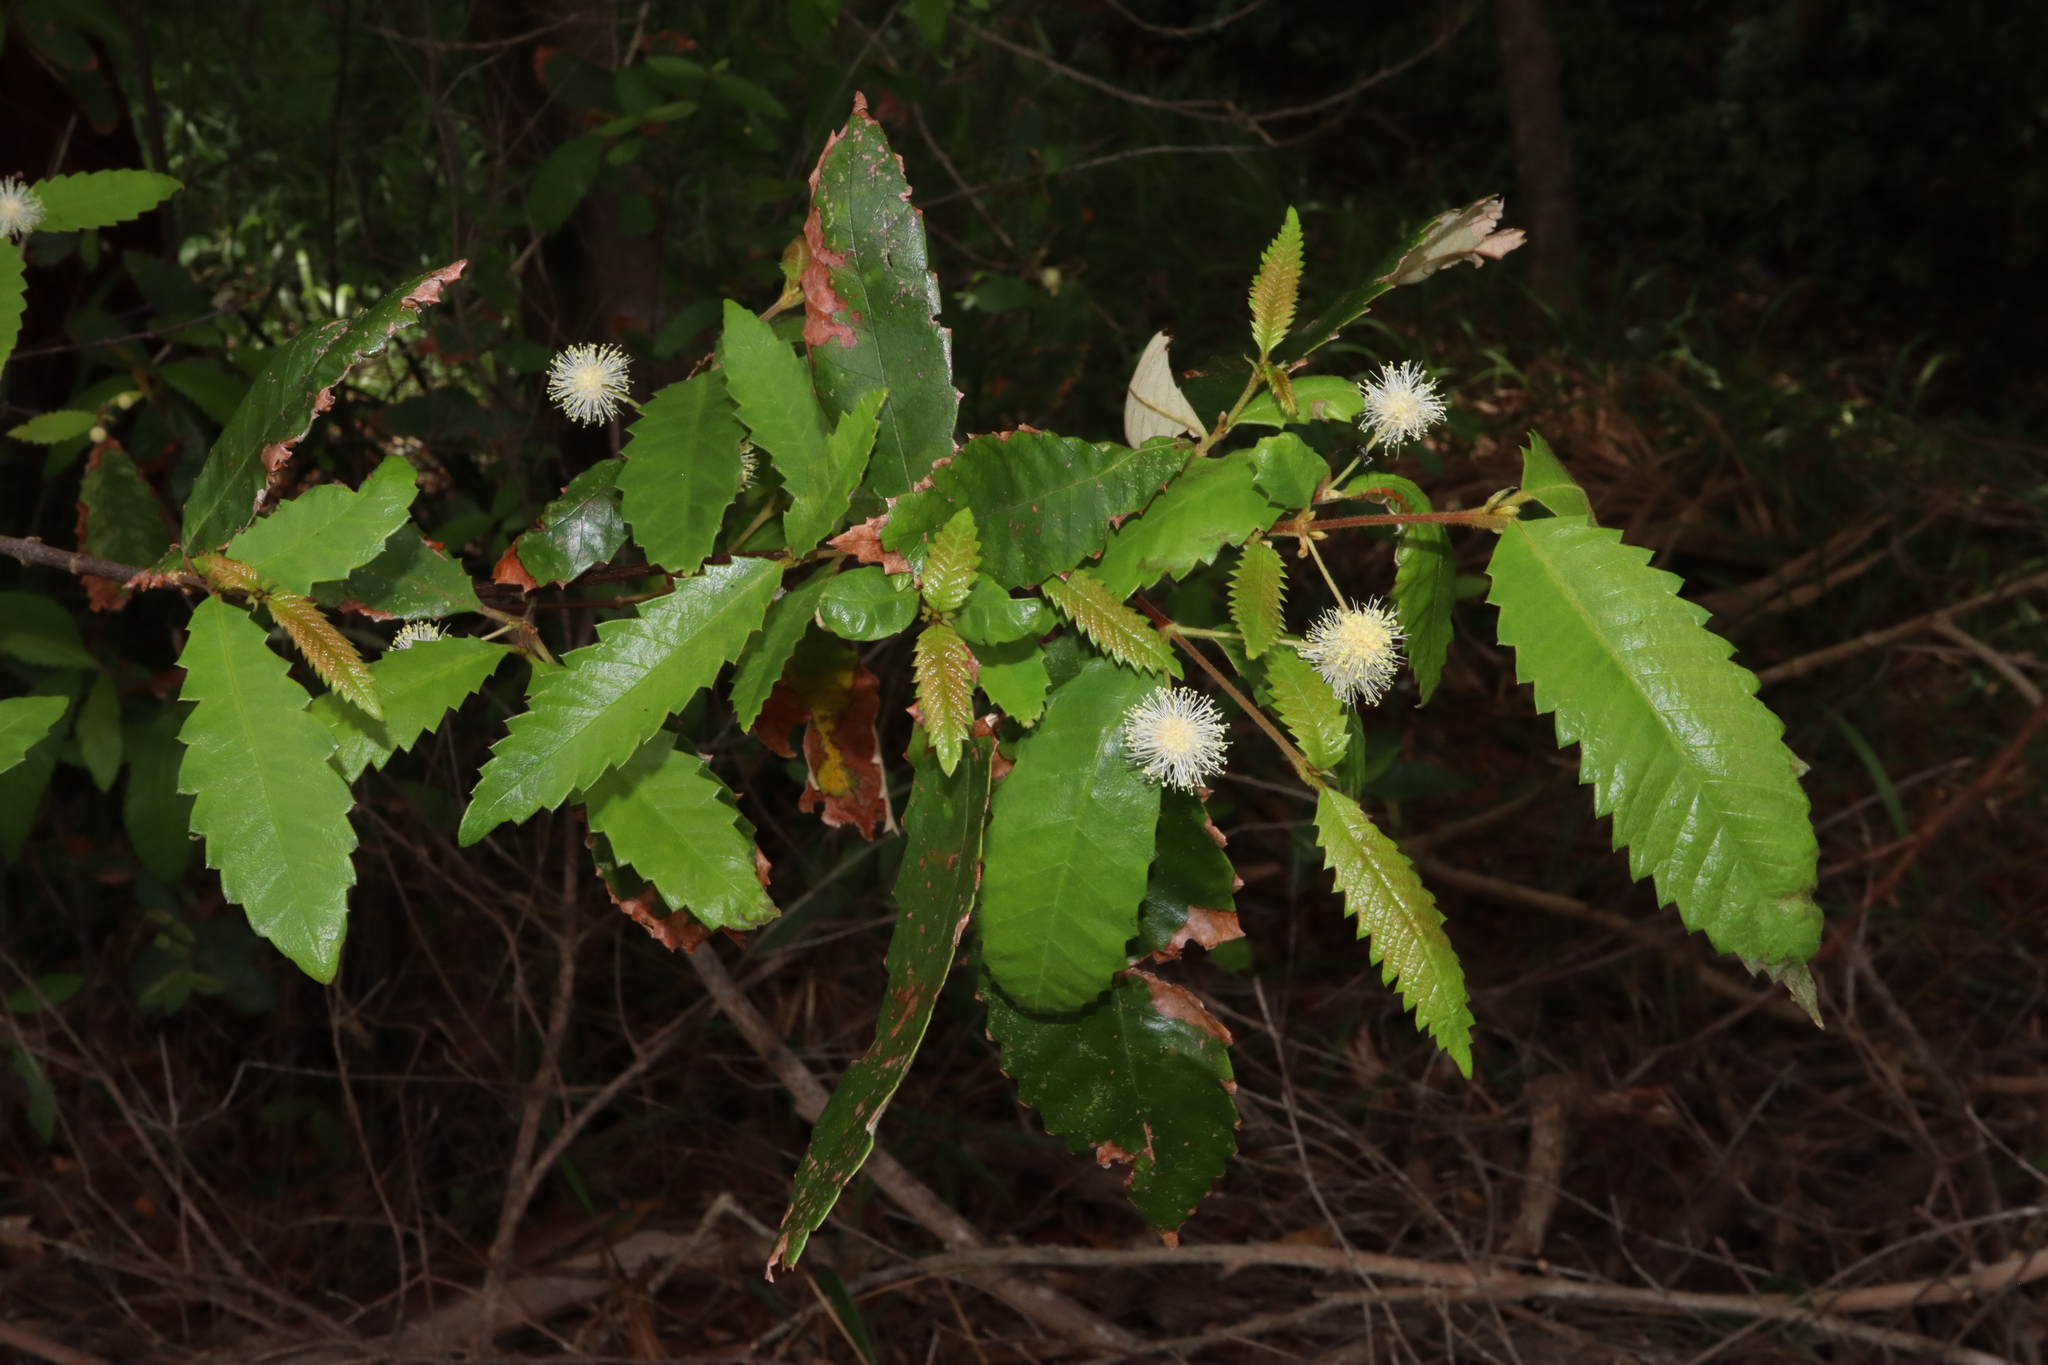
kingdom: Plantae
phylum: Tracheophyta
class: Magnoliopsida
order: Oxalidales
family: Cunoniaceae
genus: Callicoma
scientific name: Callicoma serratifolia
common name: Black wattle
